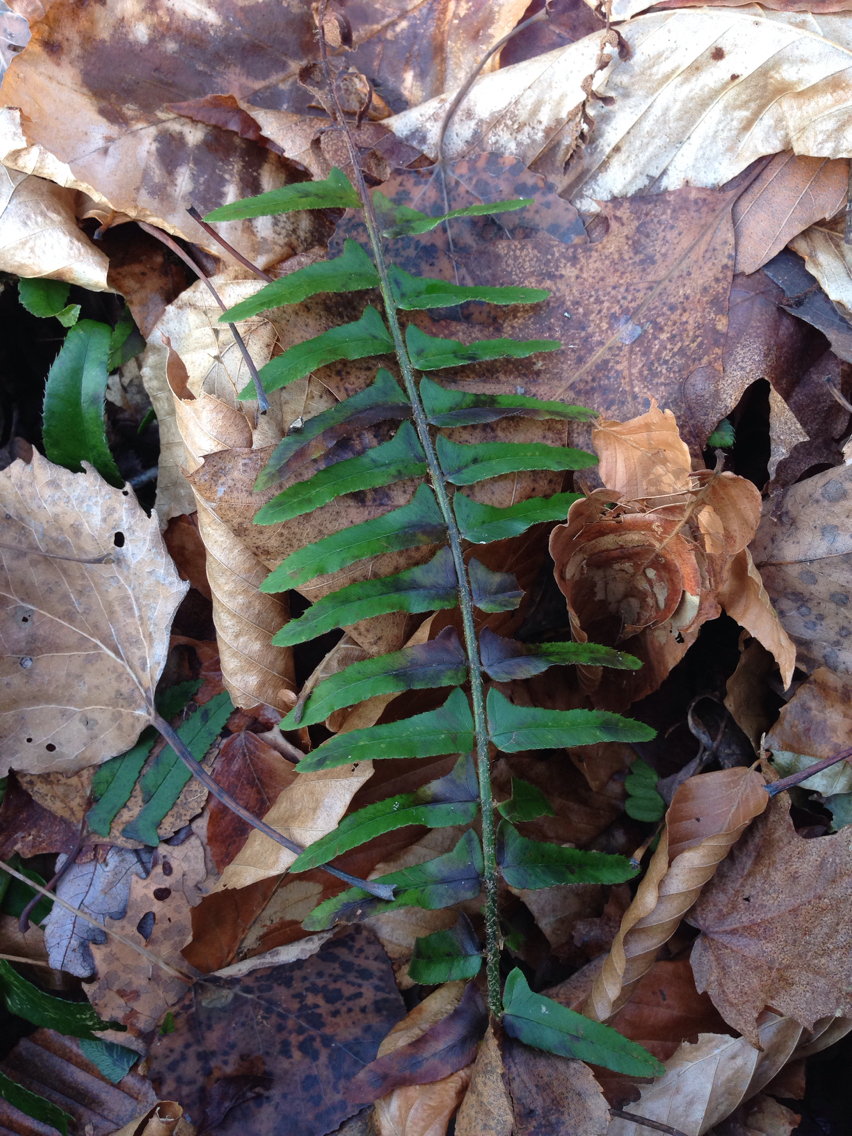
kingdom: Plantae
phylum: Tracheophyta
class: Polypodiopsida
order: Polypodiales
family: Dryopteridaceae
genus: Polystichum
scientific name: Polystichum acrostichoides
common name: Christmas fern
